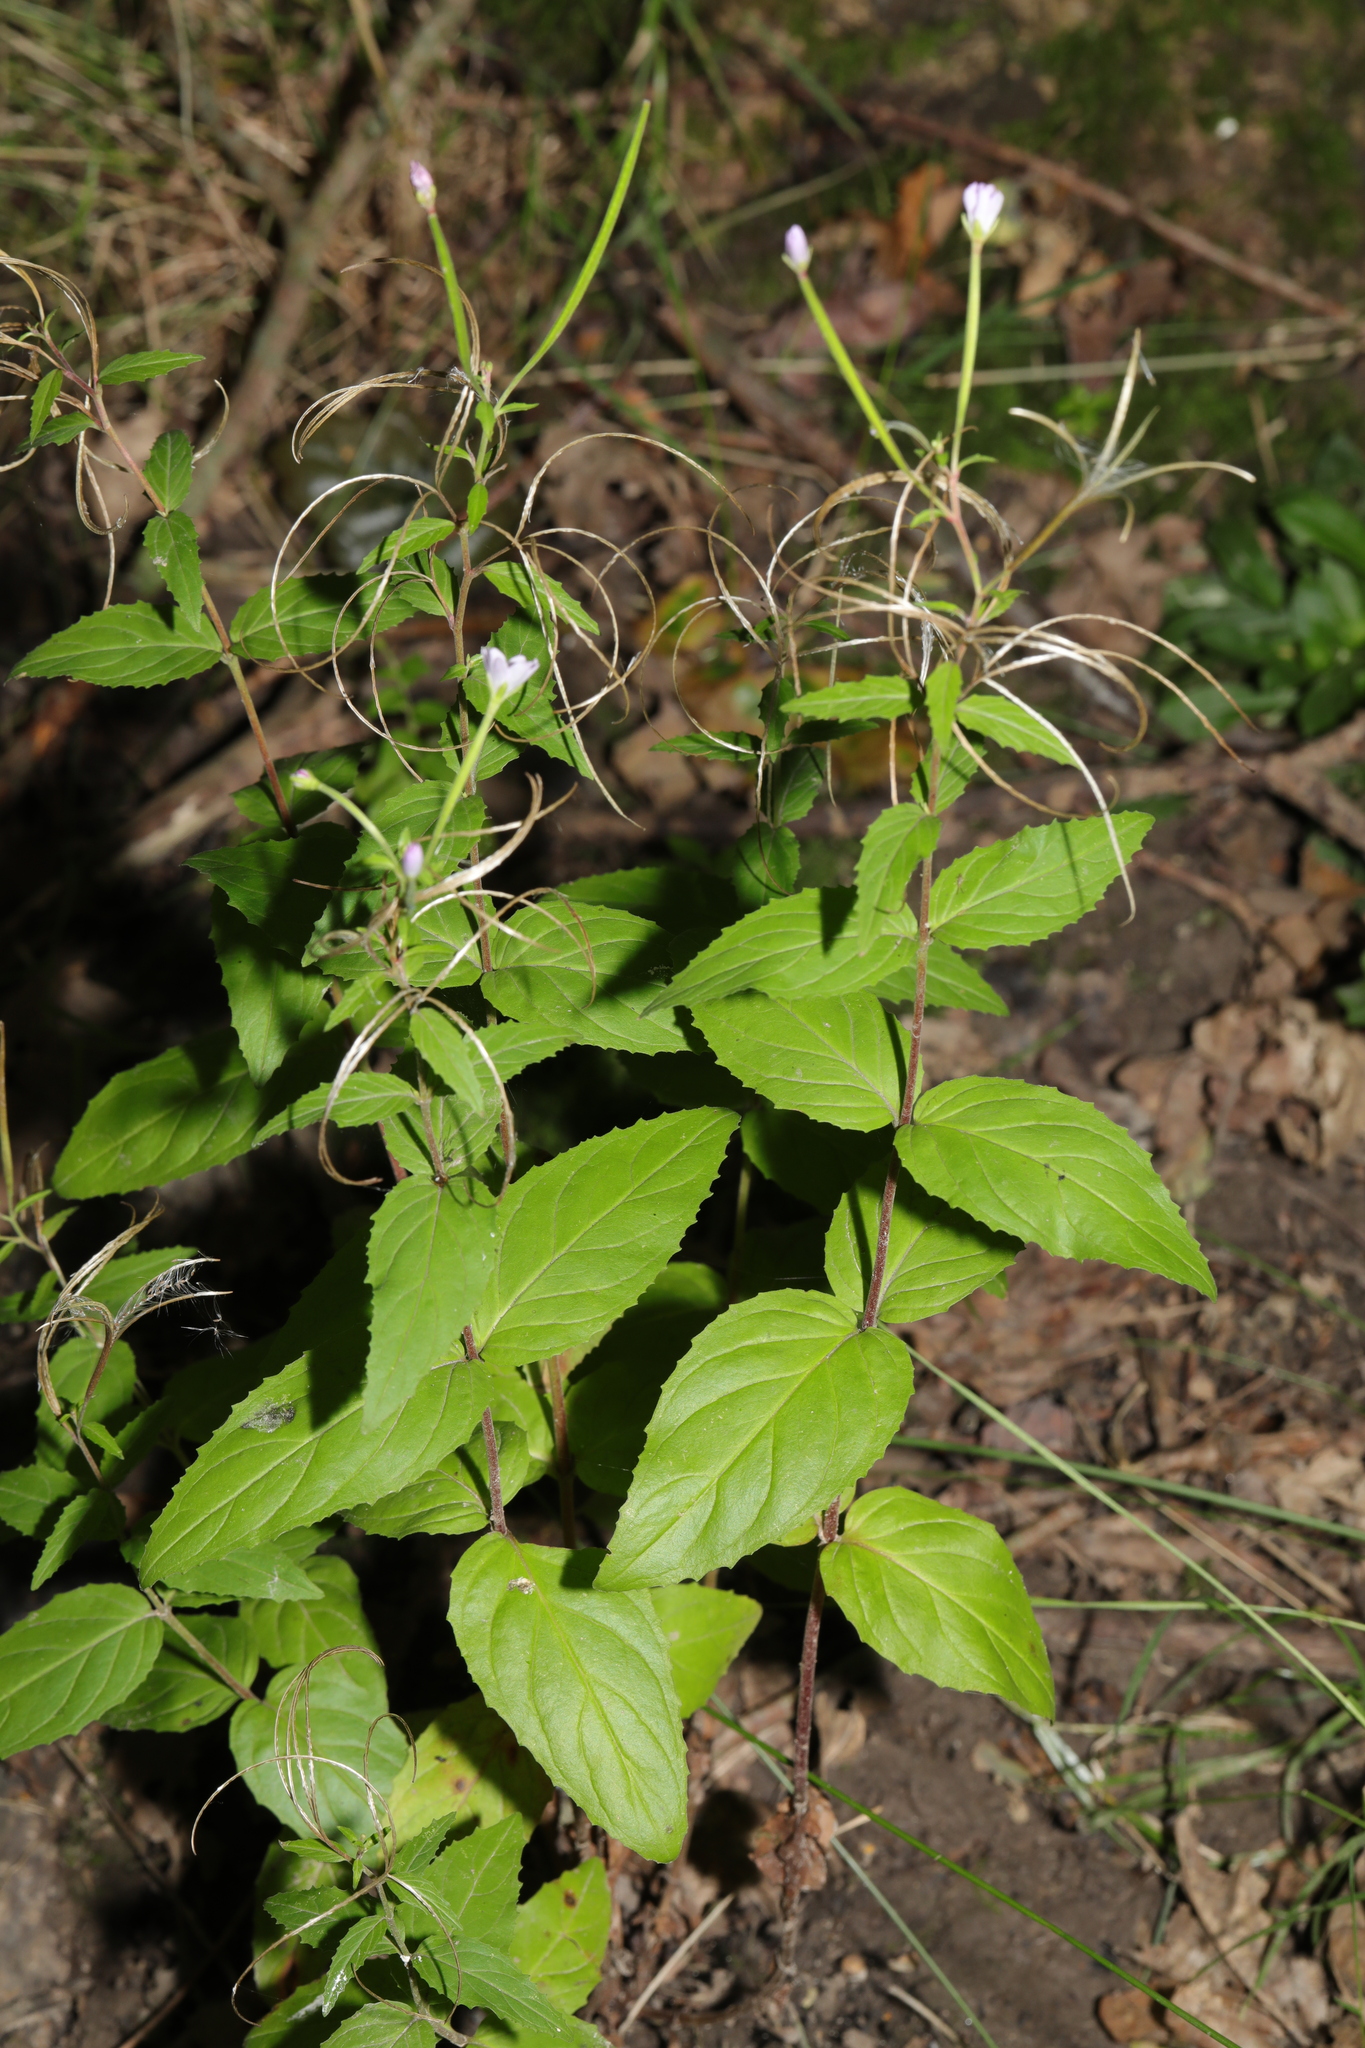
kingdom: Plantae
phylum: Tracheophyta
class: Magnoliopsida
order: Myrtales
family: Onagraceae
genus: Epilobium
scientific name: Epilobium montanum
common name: Broad-leaved willowherb
